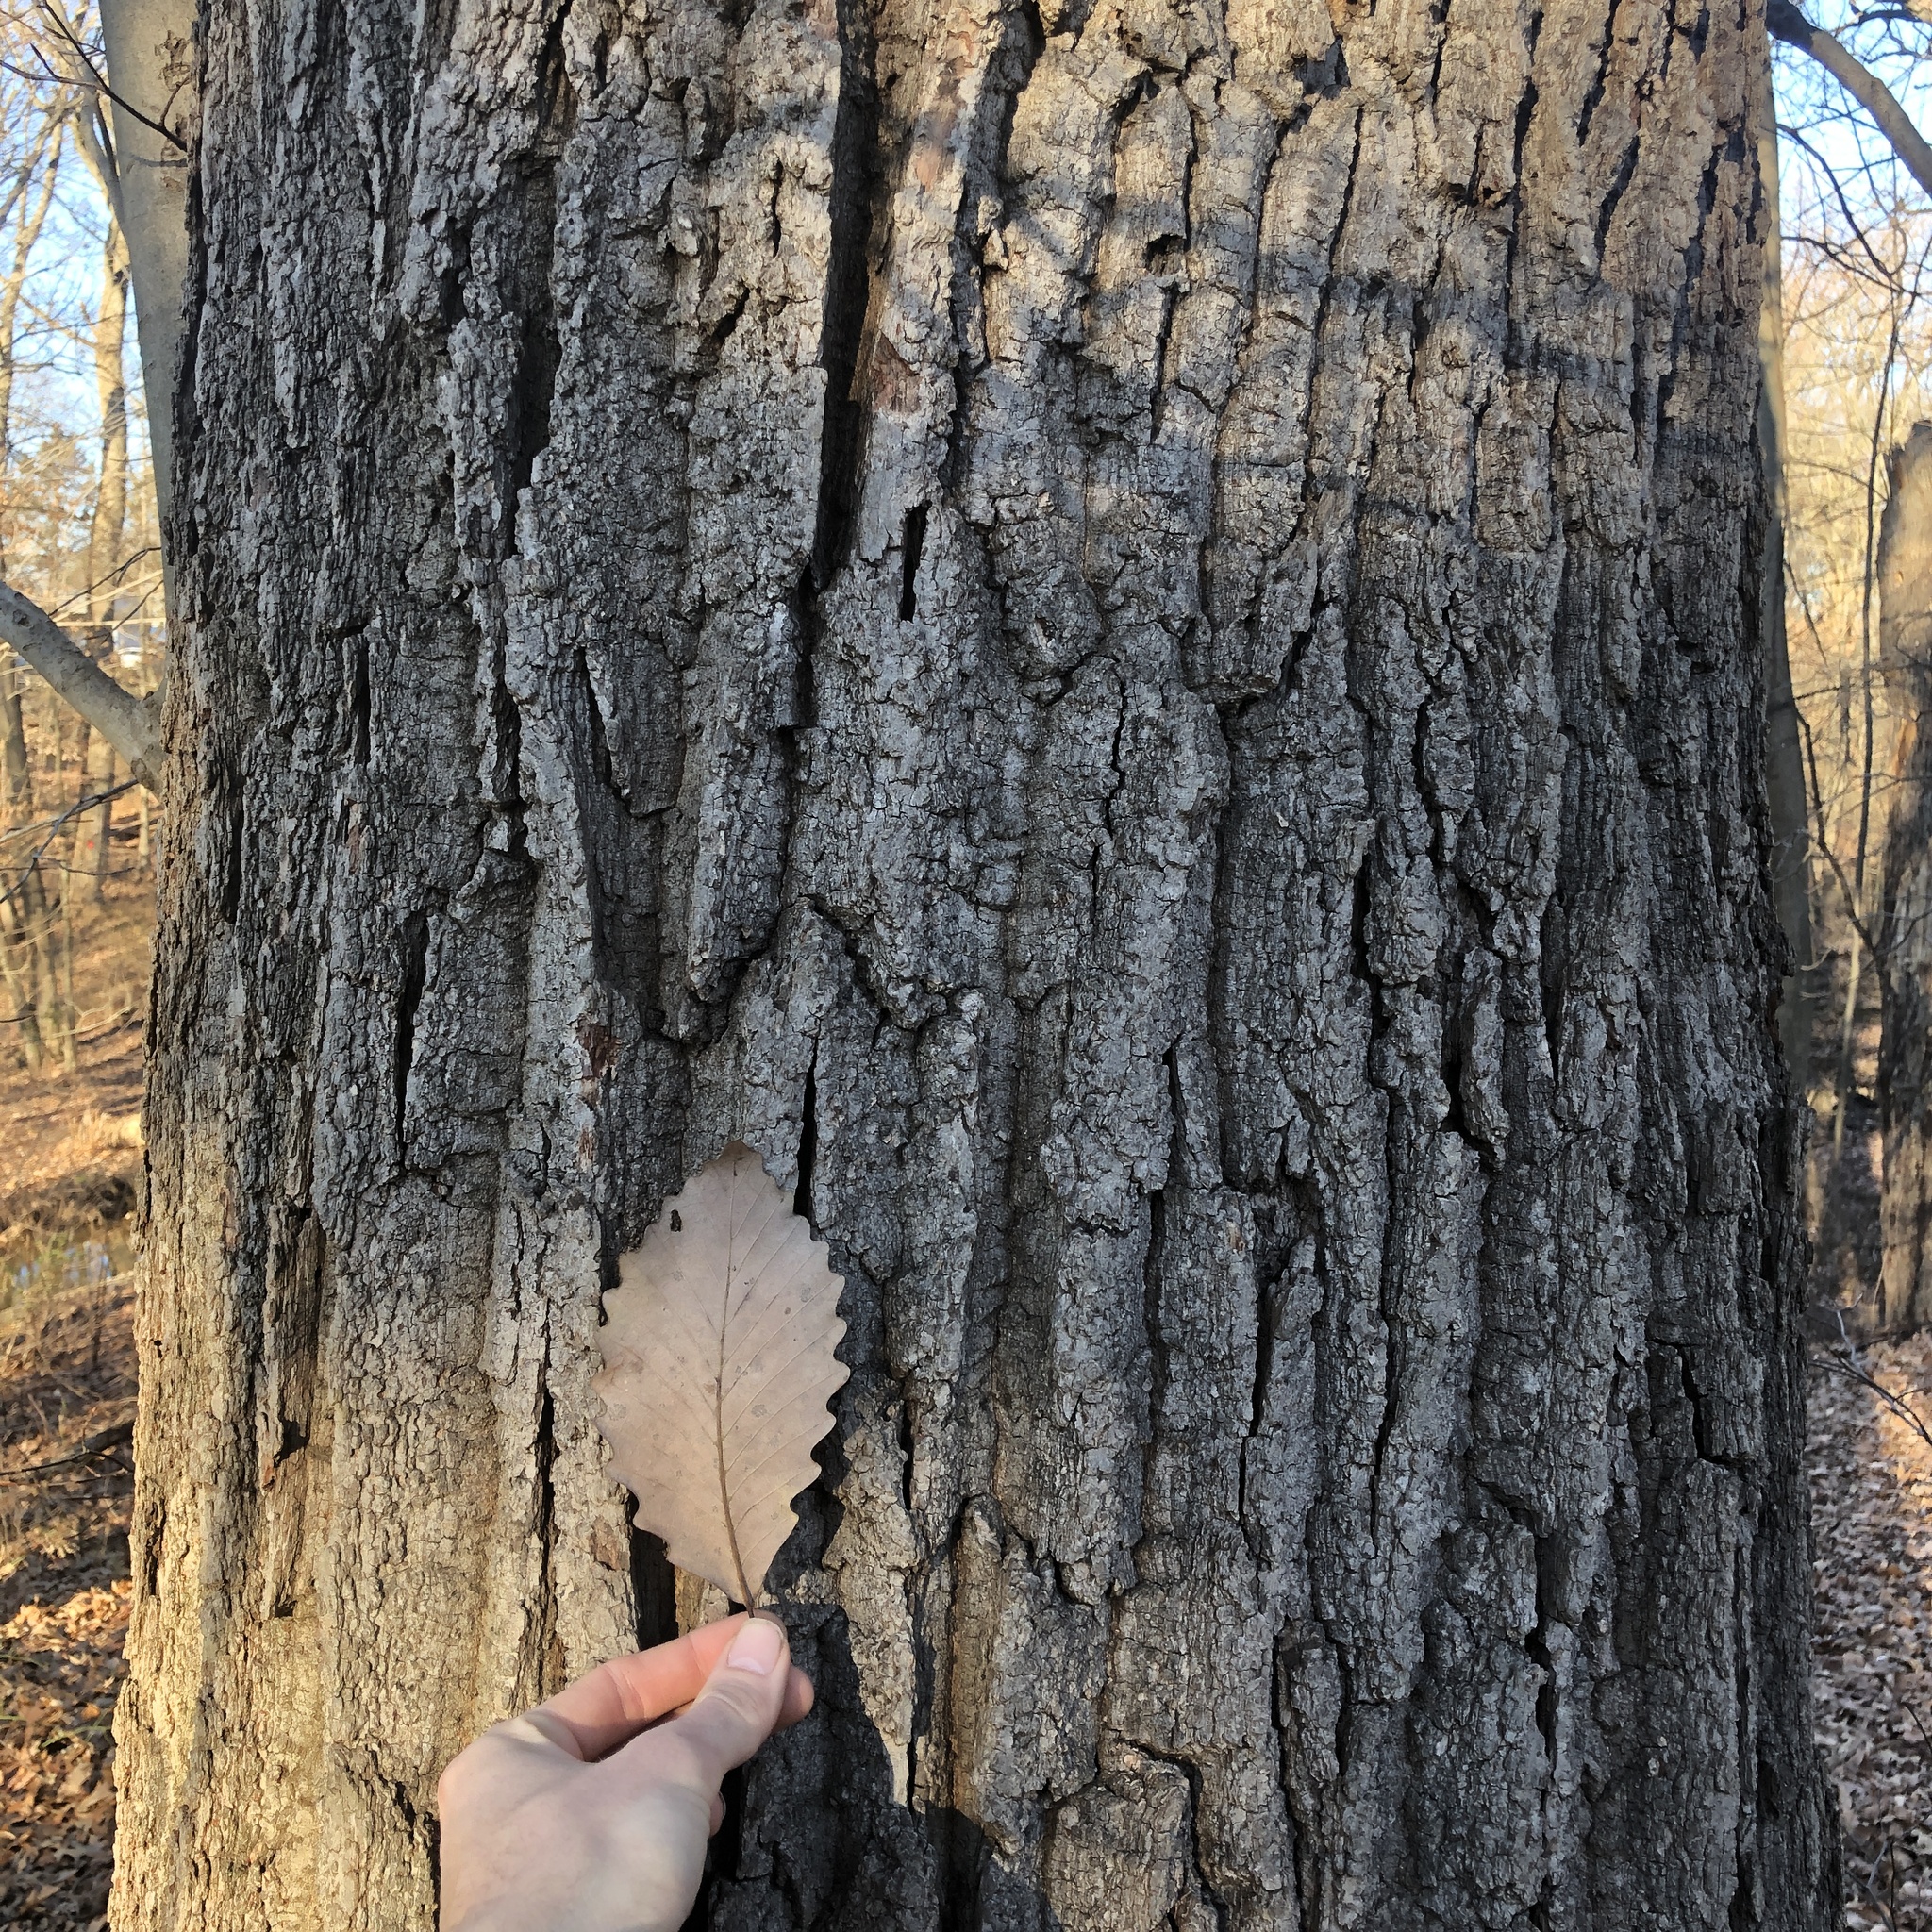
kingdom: Plantae
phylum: Tracheophyta
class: Magnoliopsida
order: Fagales
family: Fagaceae
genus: Quercus
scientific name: Quercus montana
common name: Chestnut oak
